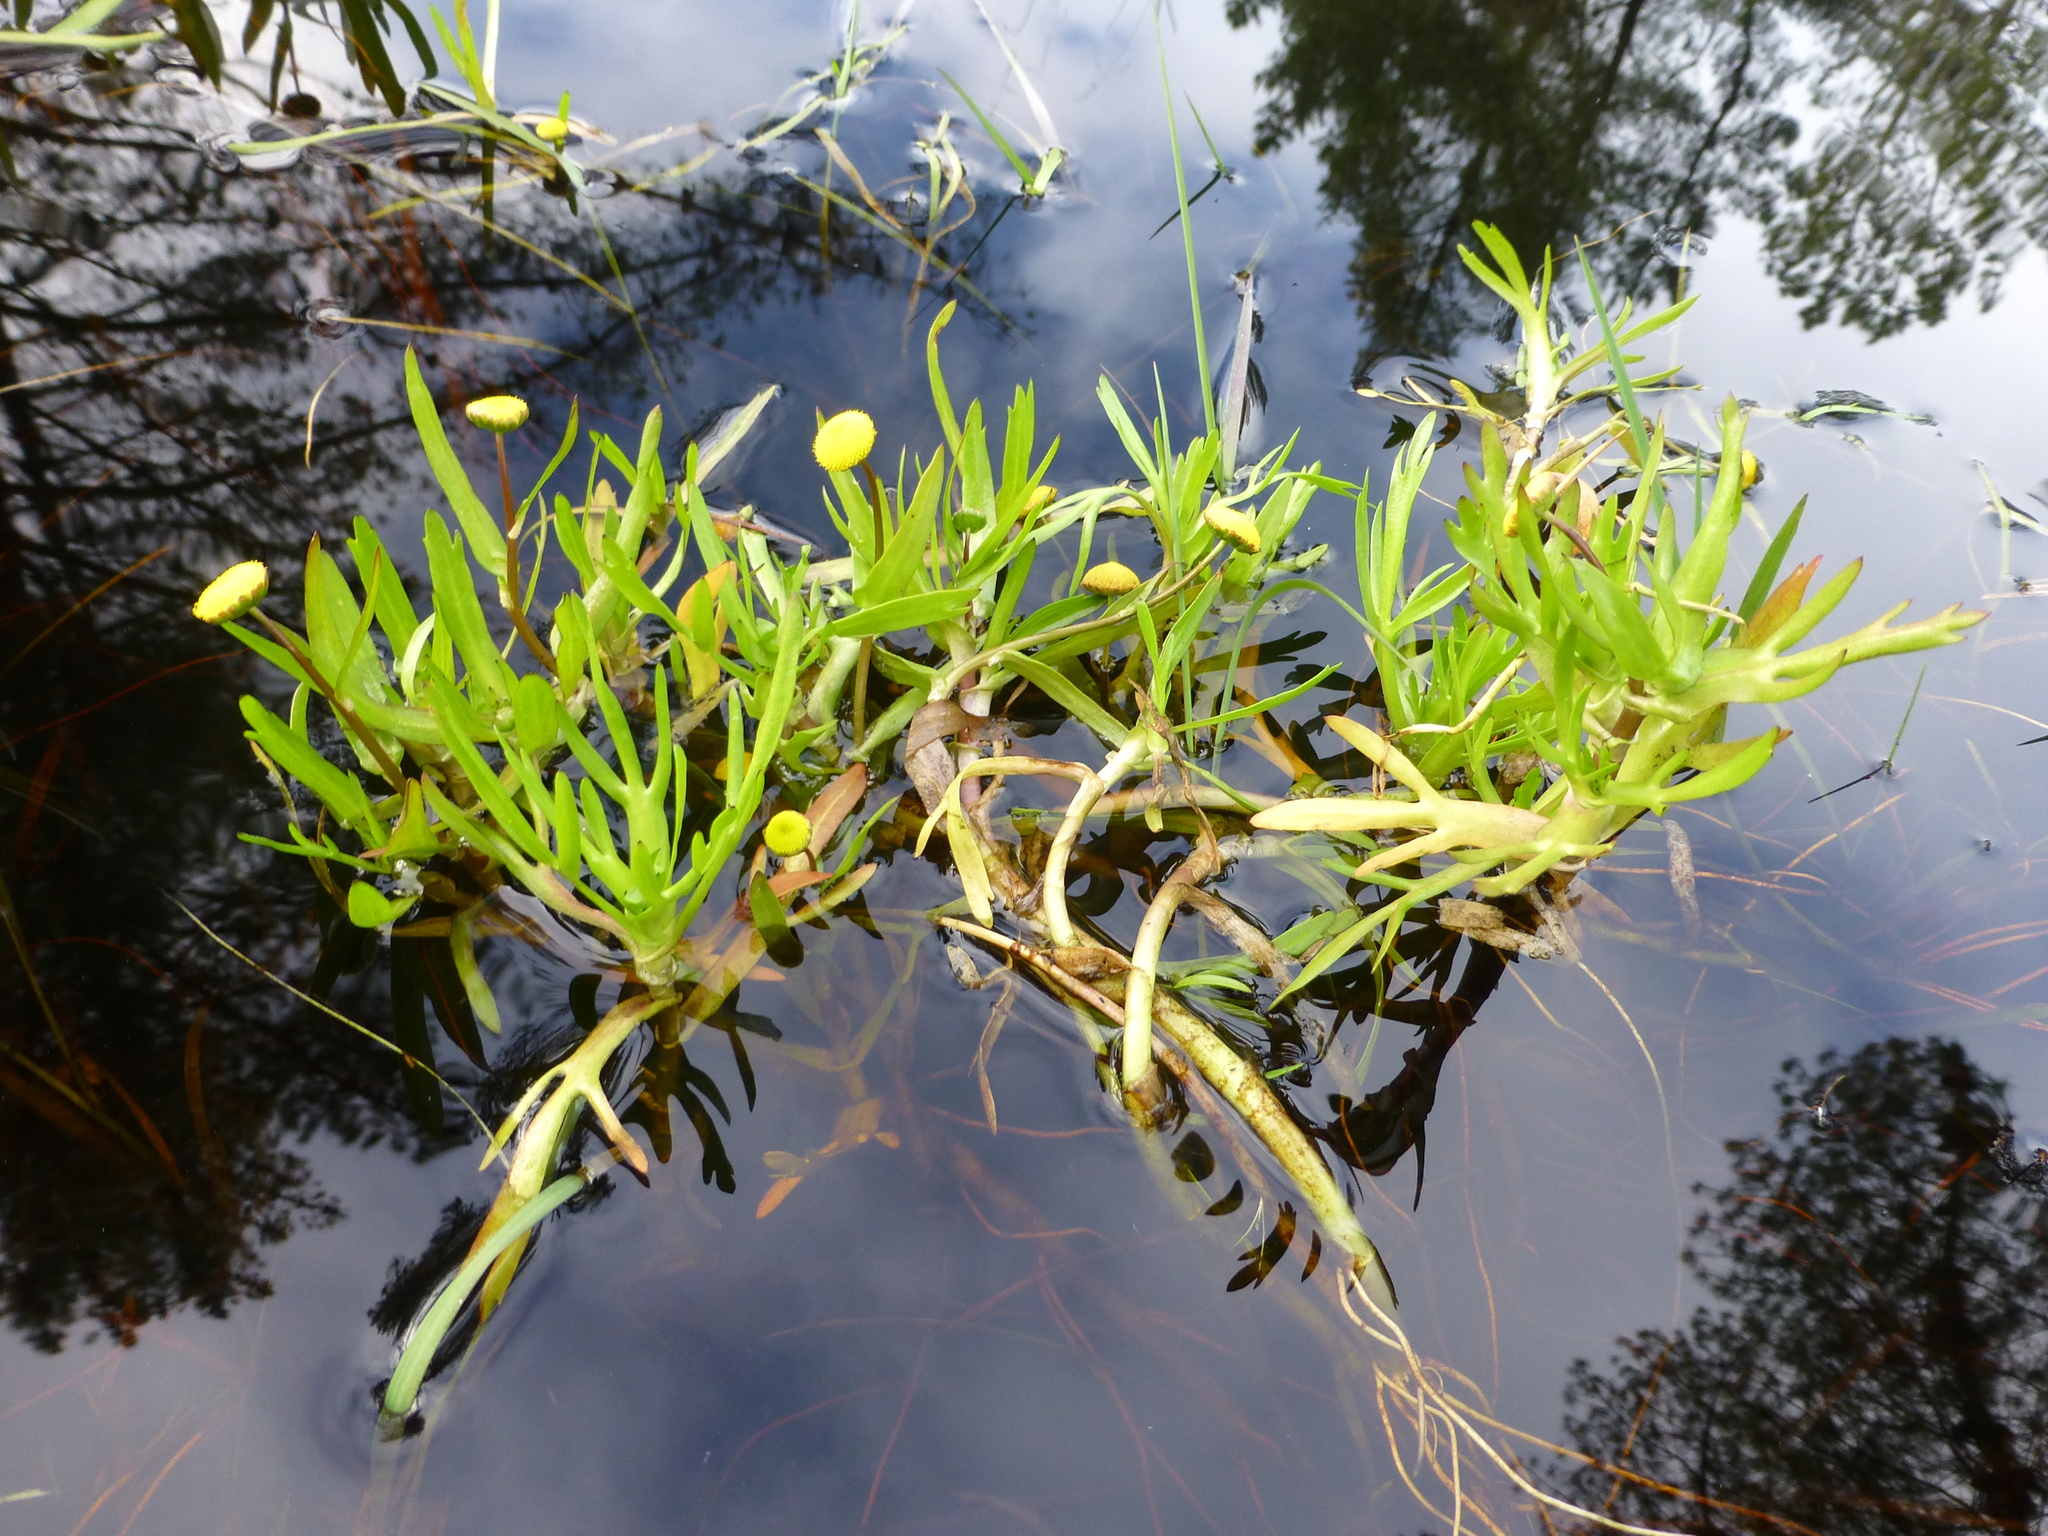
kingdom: Plantae
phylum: Tracheophyta
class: Magnoliopsida
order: Asterales
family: Asteraceae
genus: Cotula
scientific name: Cotula coronopifolia
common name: Buttonweed
